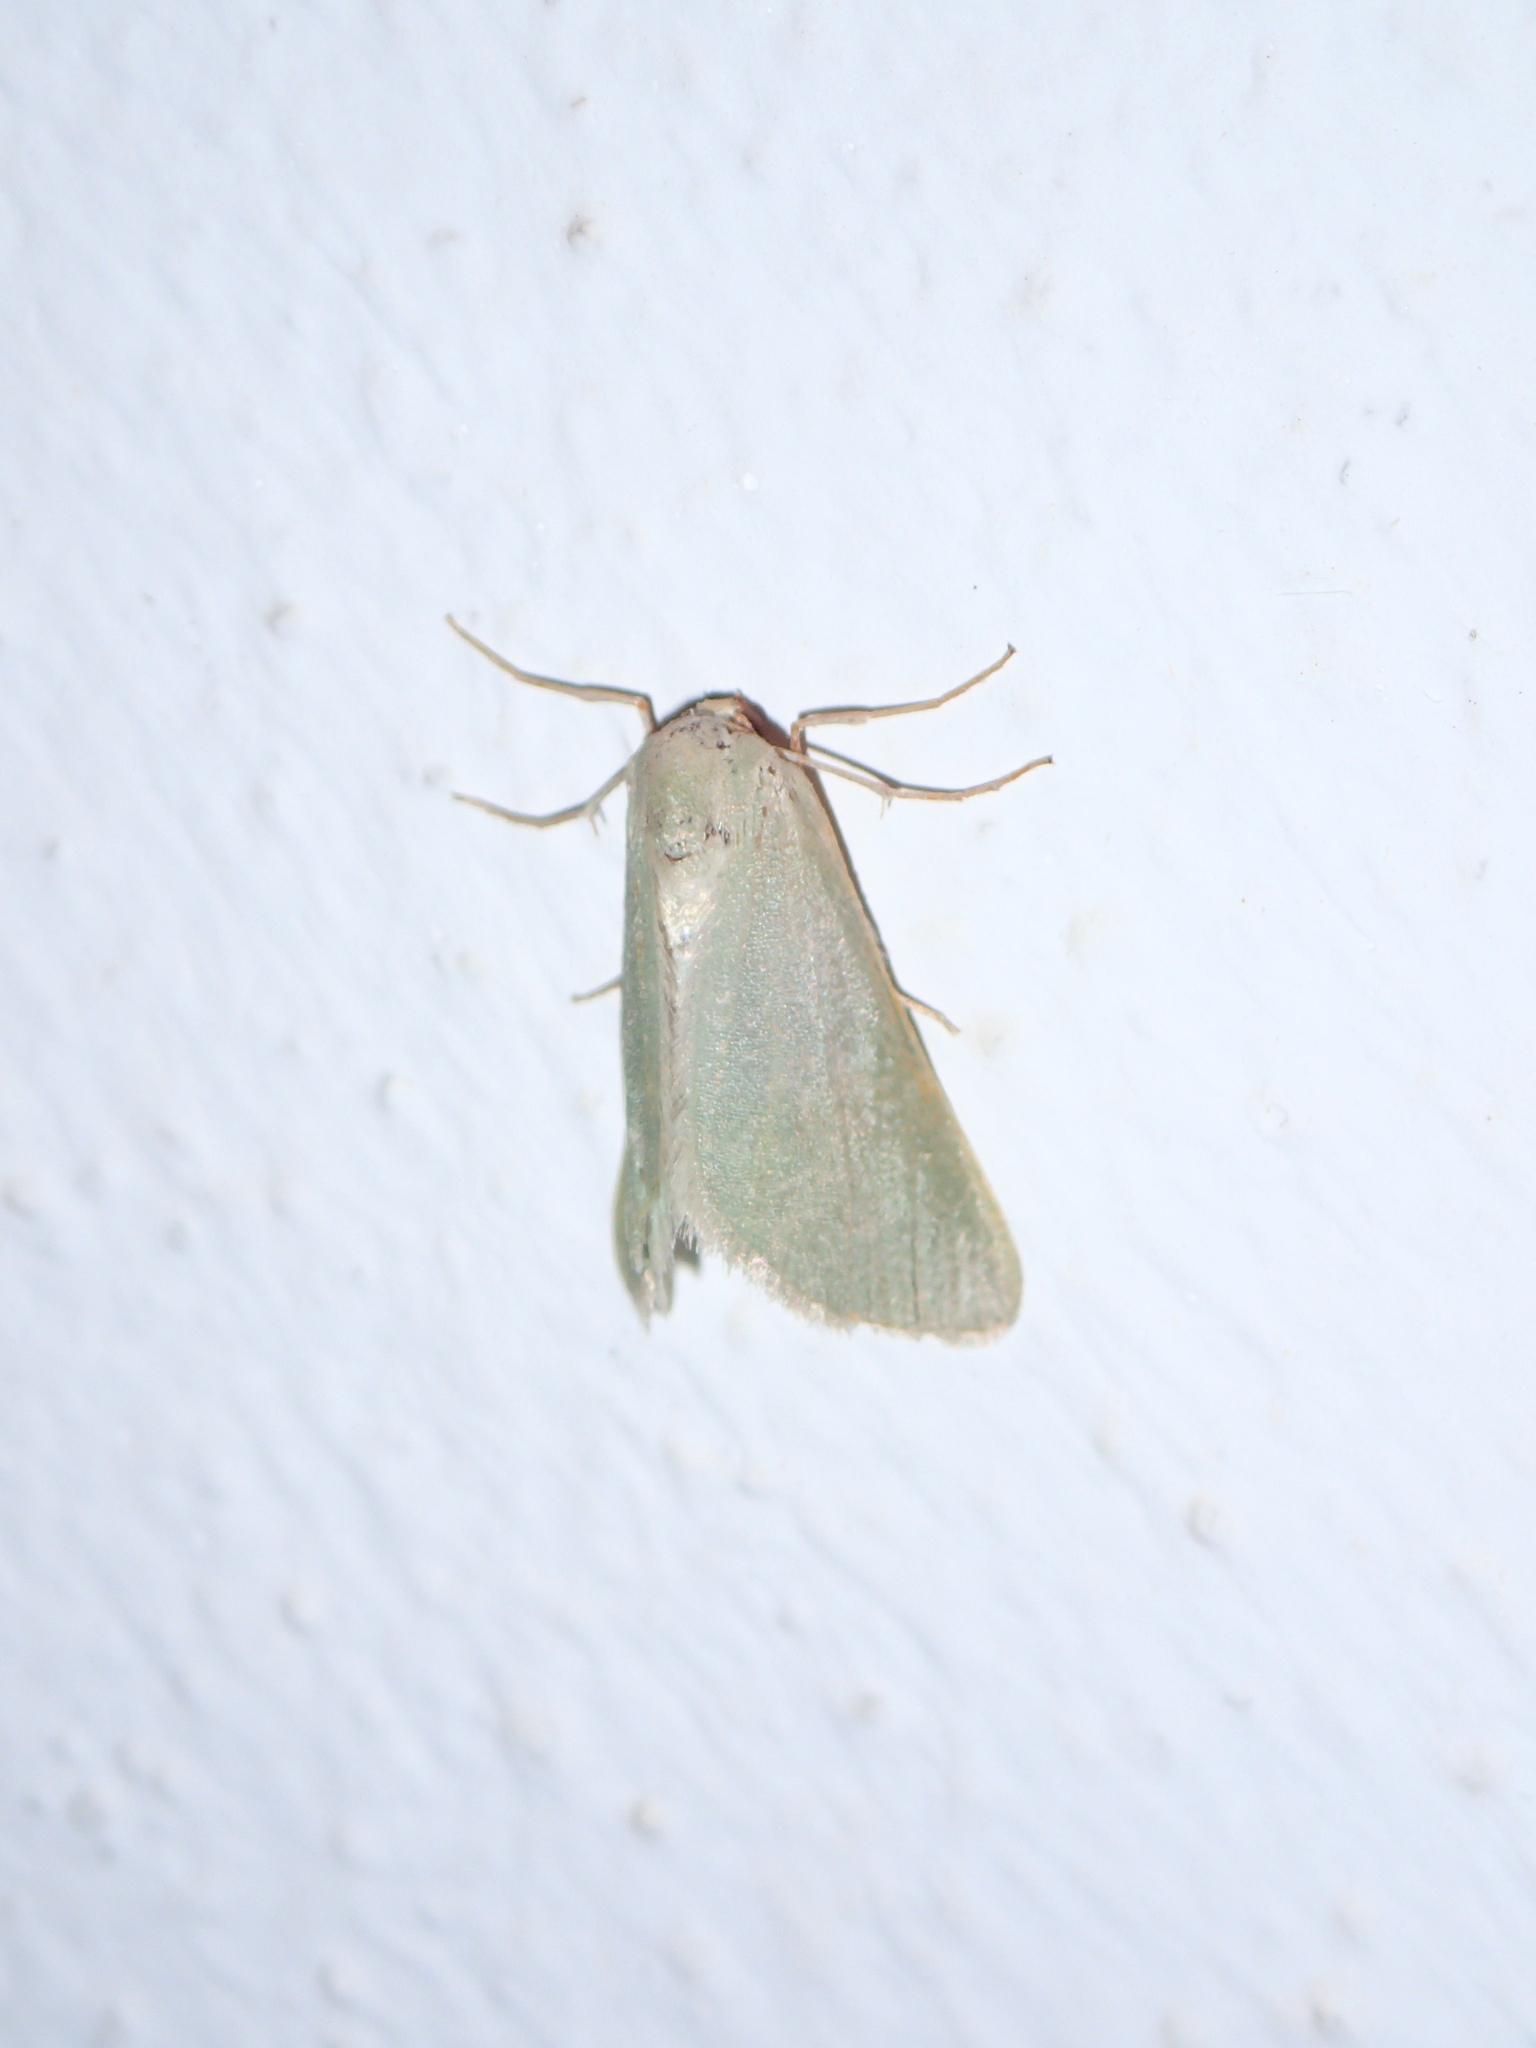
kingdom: Animalia
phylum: Arthropoda
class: Insecta
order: Lepidoptera
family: Geometridae
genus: Microloxia
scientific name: Microloxia schmitzi
